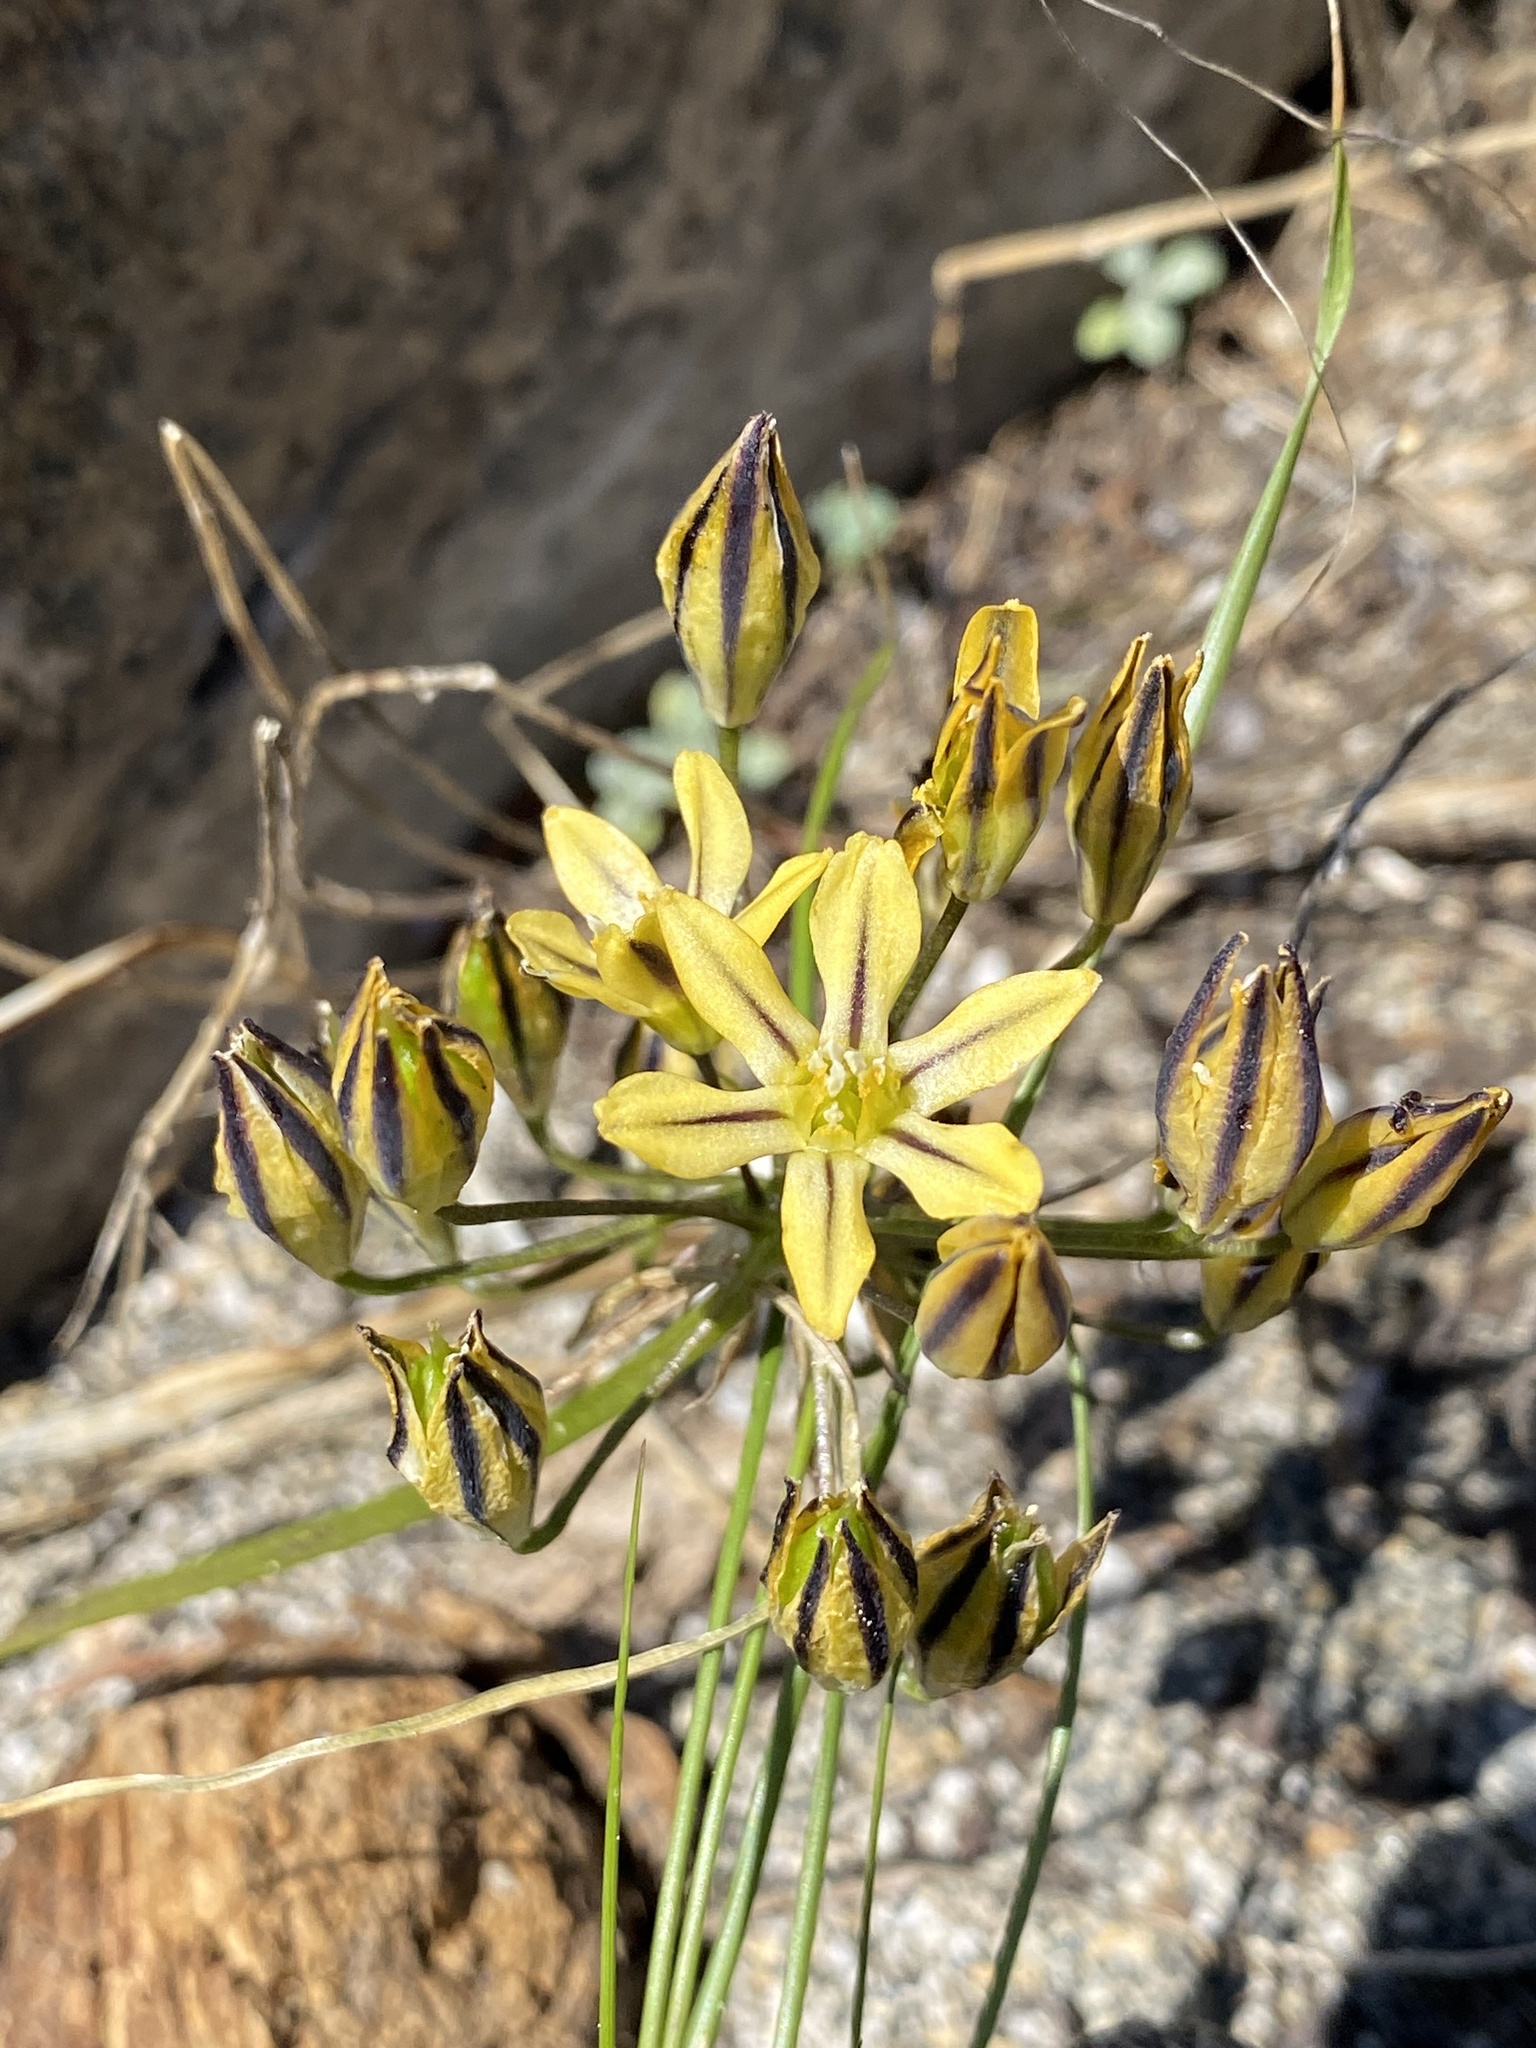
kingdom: Plantae
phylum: Tracheophyta
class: Liliopsida
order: Asparagales
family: Asparagaceae
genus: Triteleia
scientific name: Triteleia ixioides
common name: Yellow-brodiaea
